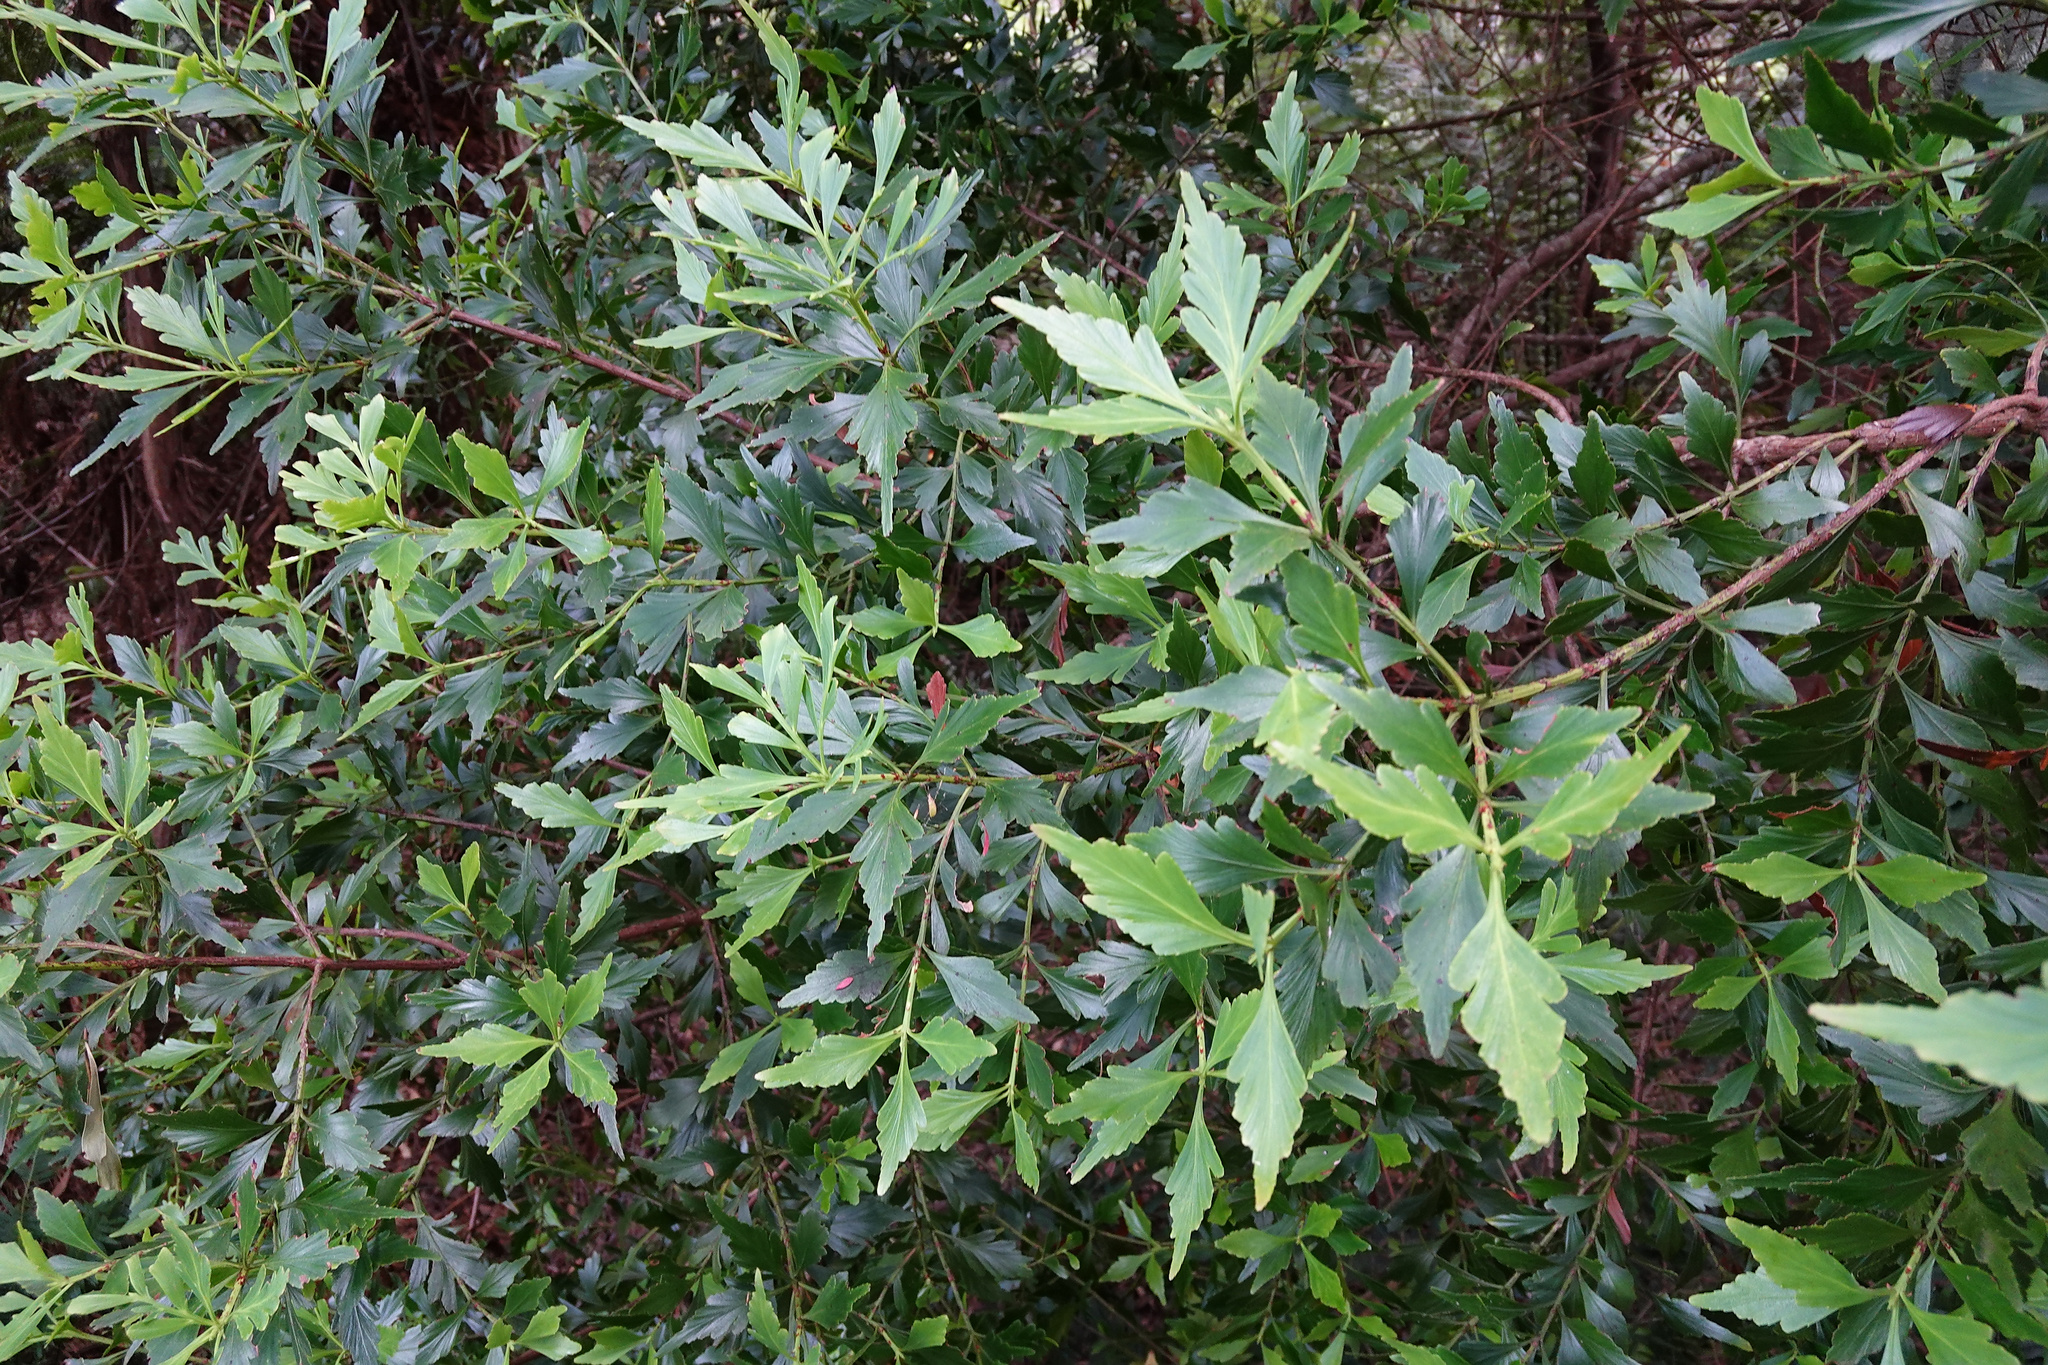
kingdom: Plantae
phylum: Tracheophyta
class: Pinopsida
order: Pinales
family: Phyllocladaceae
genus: Phyllocladus
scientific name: Phyllocladus aspleniifolius
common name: Celery-top pine
